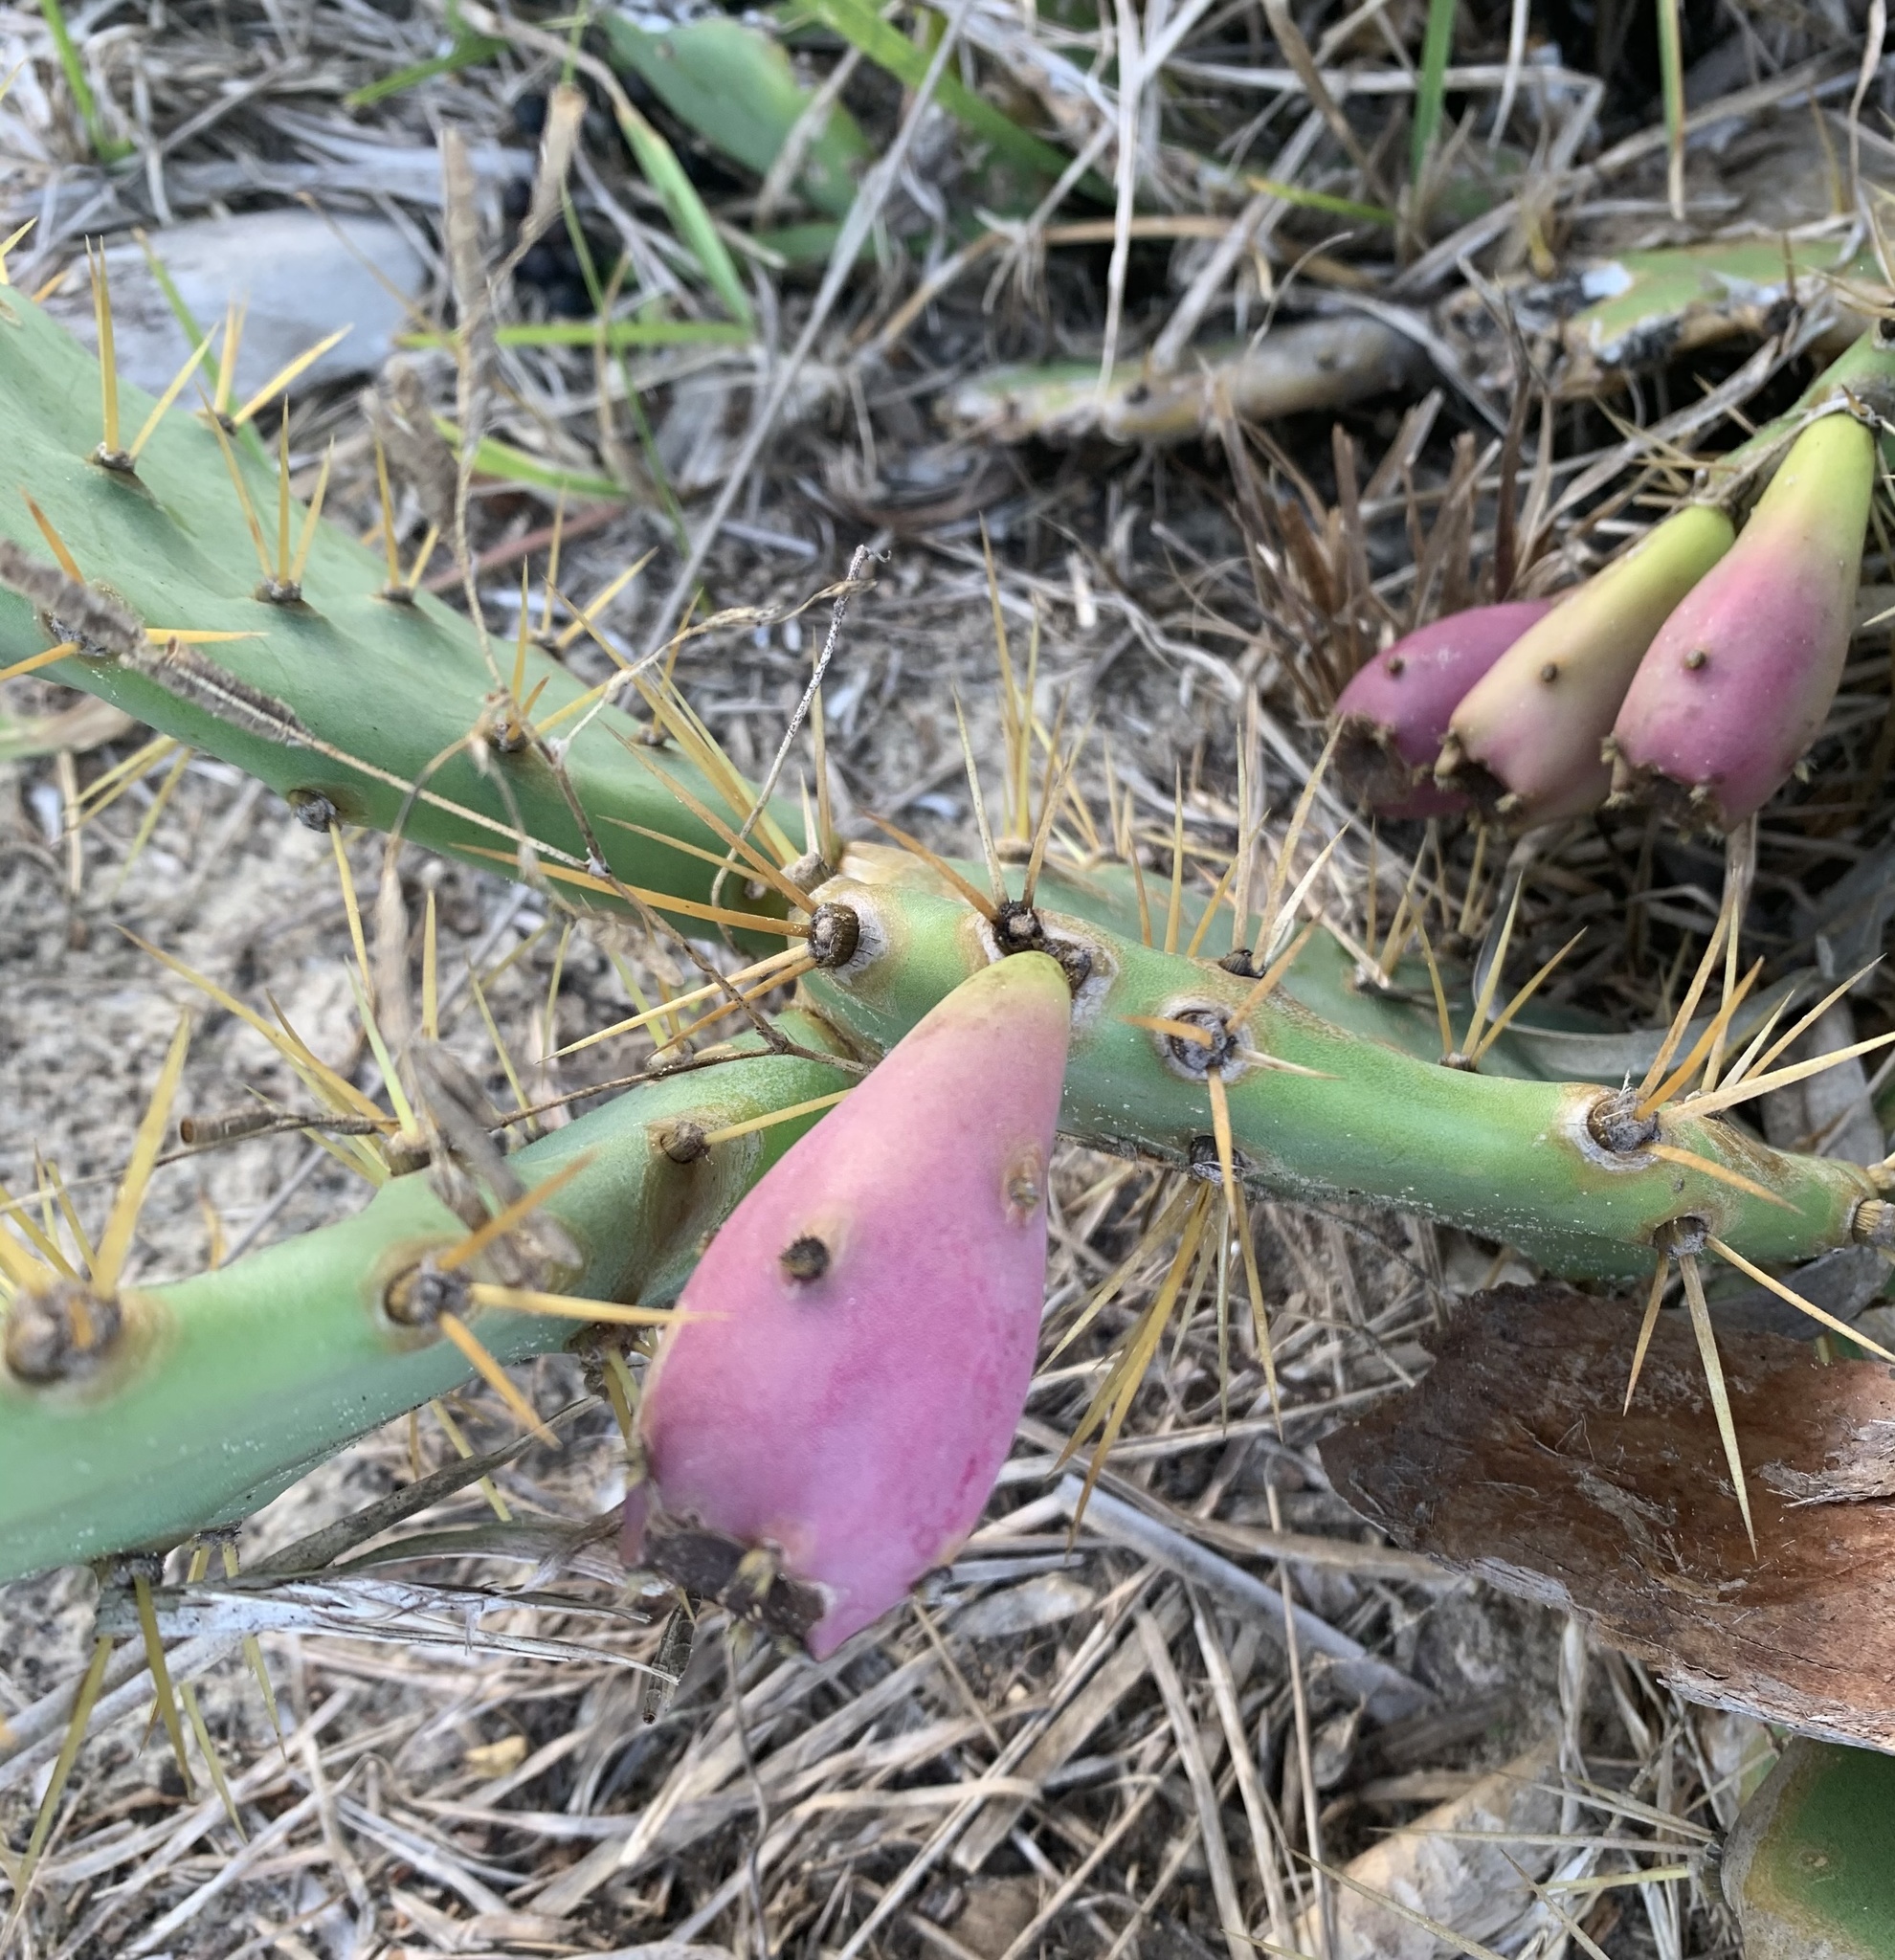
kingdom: Plantae
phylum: Tracheophyta
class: Magnoliopsida
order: Caryophyllales
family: Cactaceae
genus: Opuntia
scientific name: Opuntia stricta
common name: Erect pricklypear
